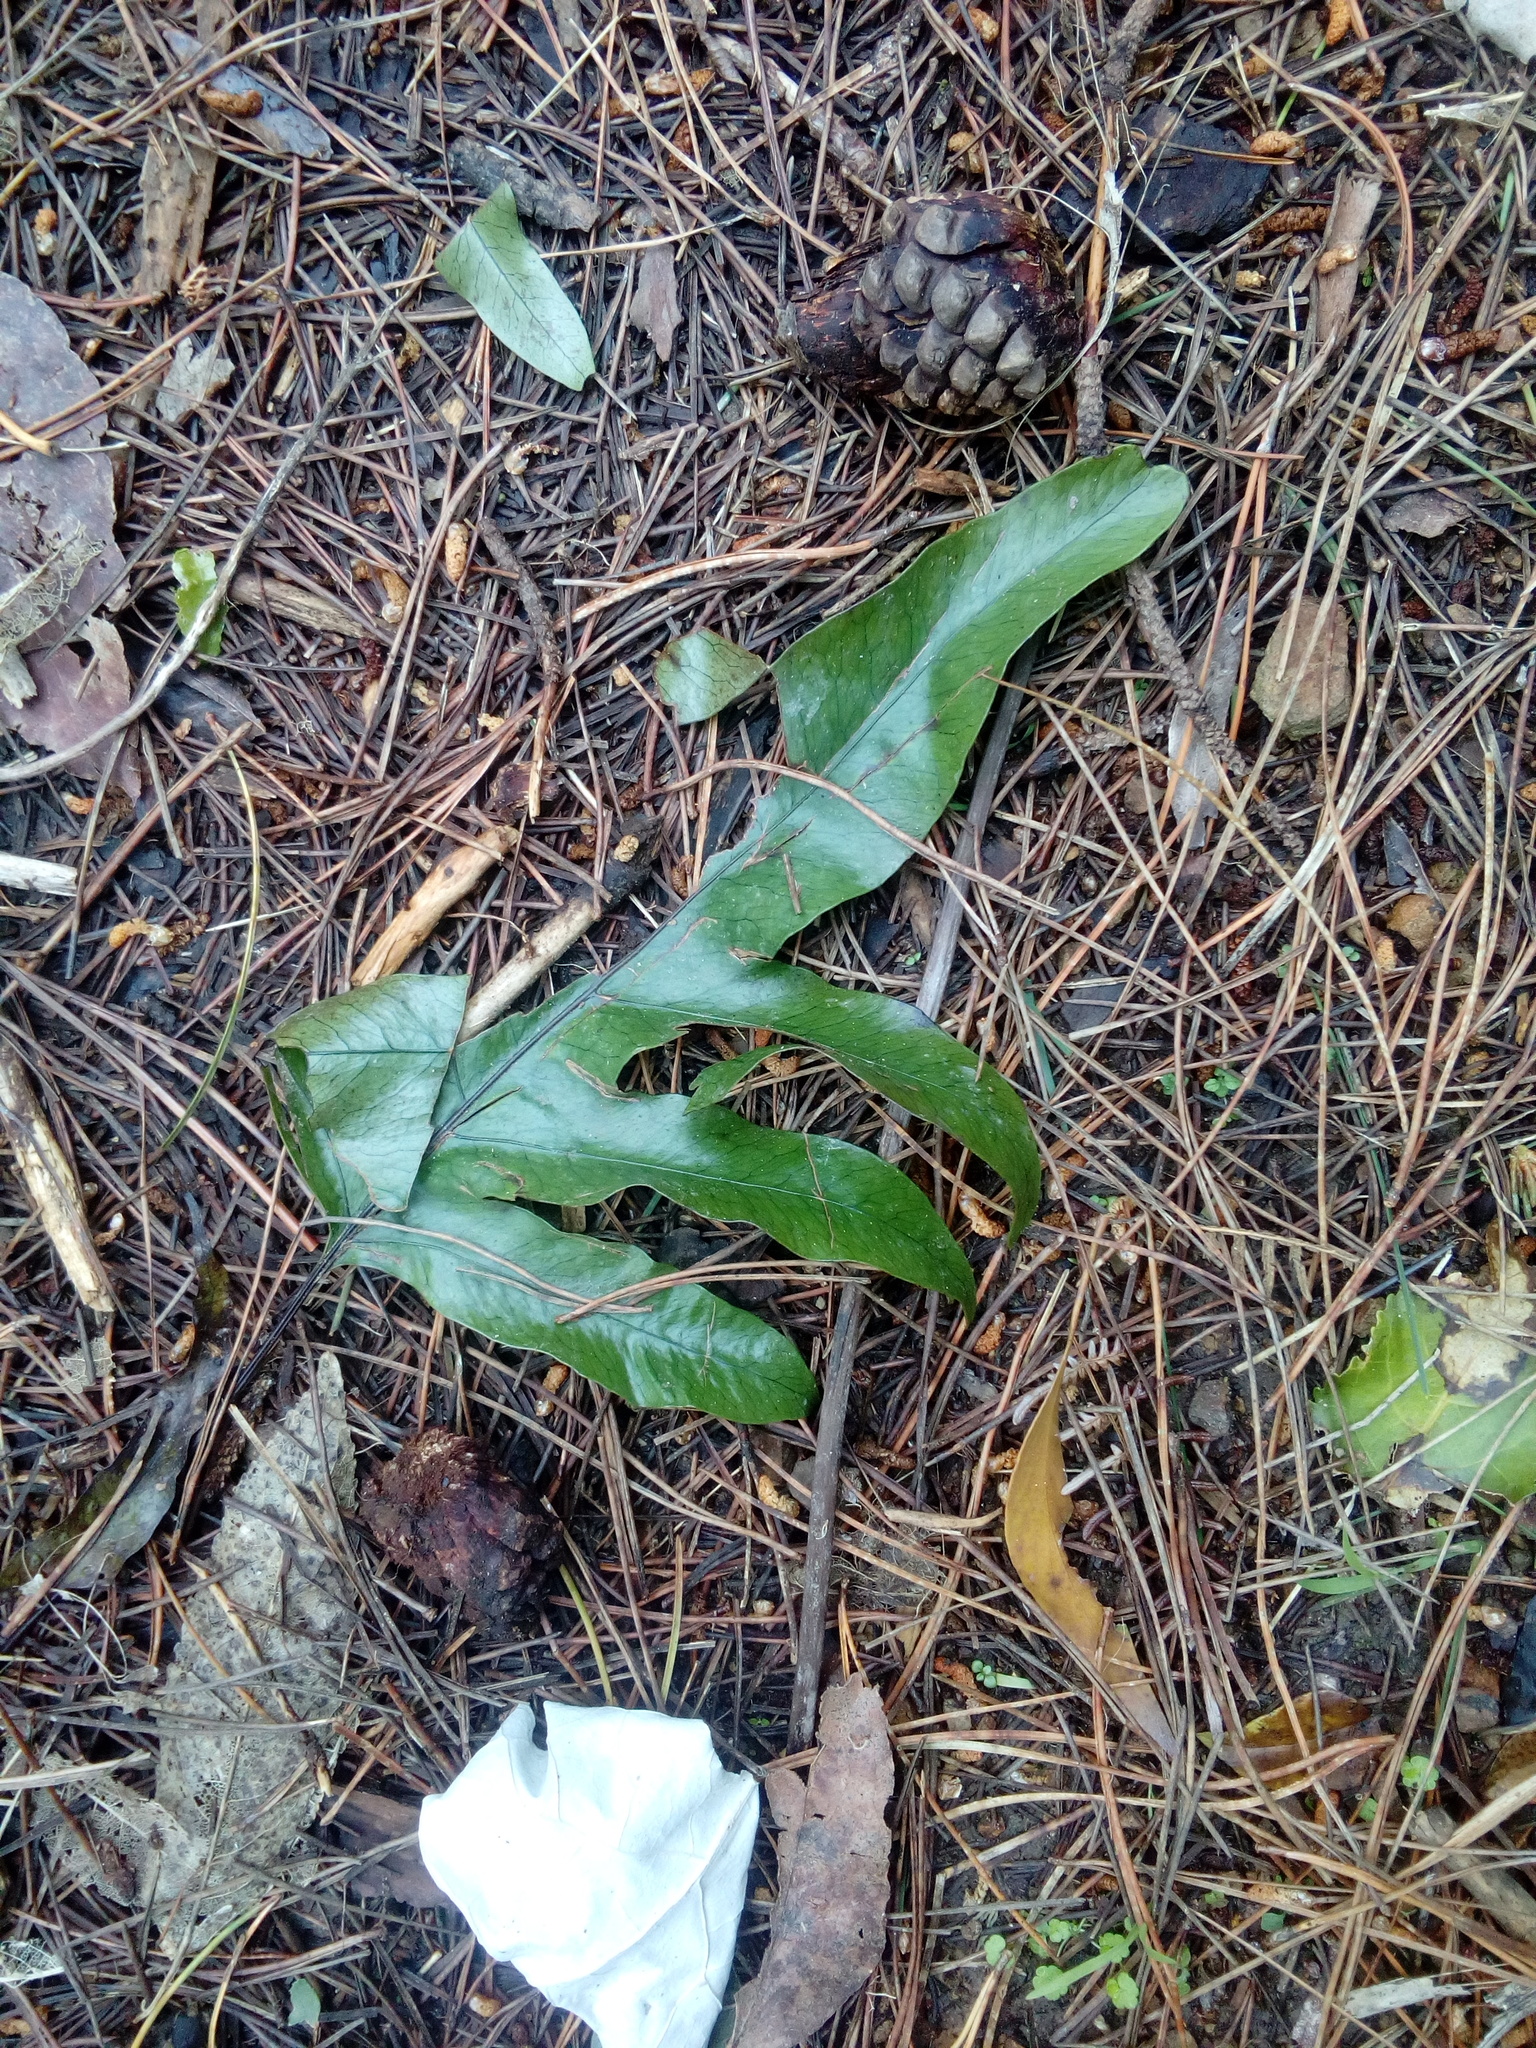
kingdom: Plantae
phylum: Tracheophyta
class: Polypodiopsida
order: Polypodiales
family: Polypodiaceae
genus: Lecanopteris
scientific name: Lecanopteris pustulata
